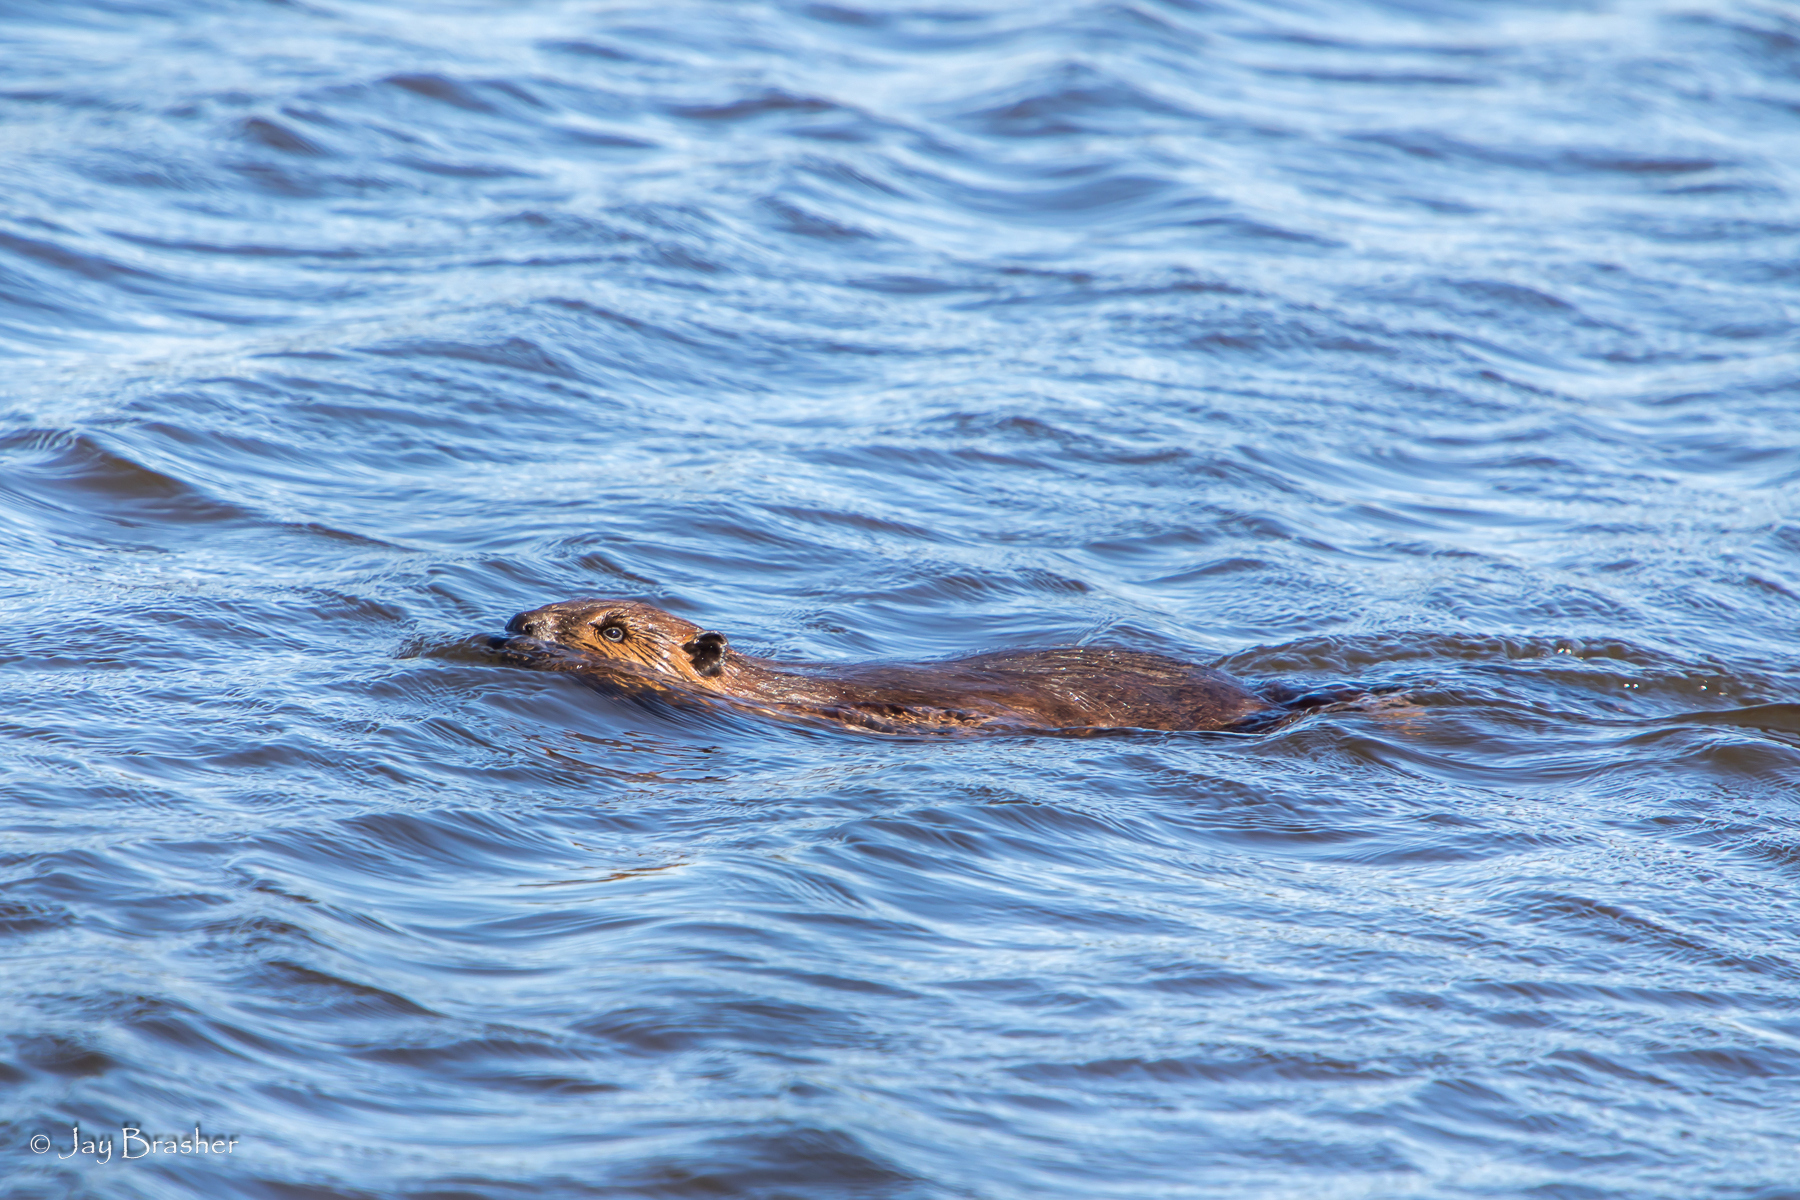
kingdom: Animalia
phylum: Chordata
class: Mammalia
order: Rodentia
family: Castoridae
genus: Castor
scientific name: Castor canadensis
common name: American beaver
